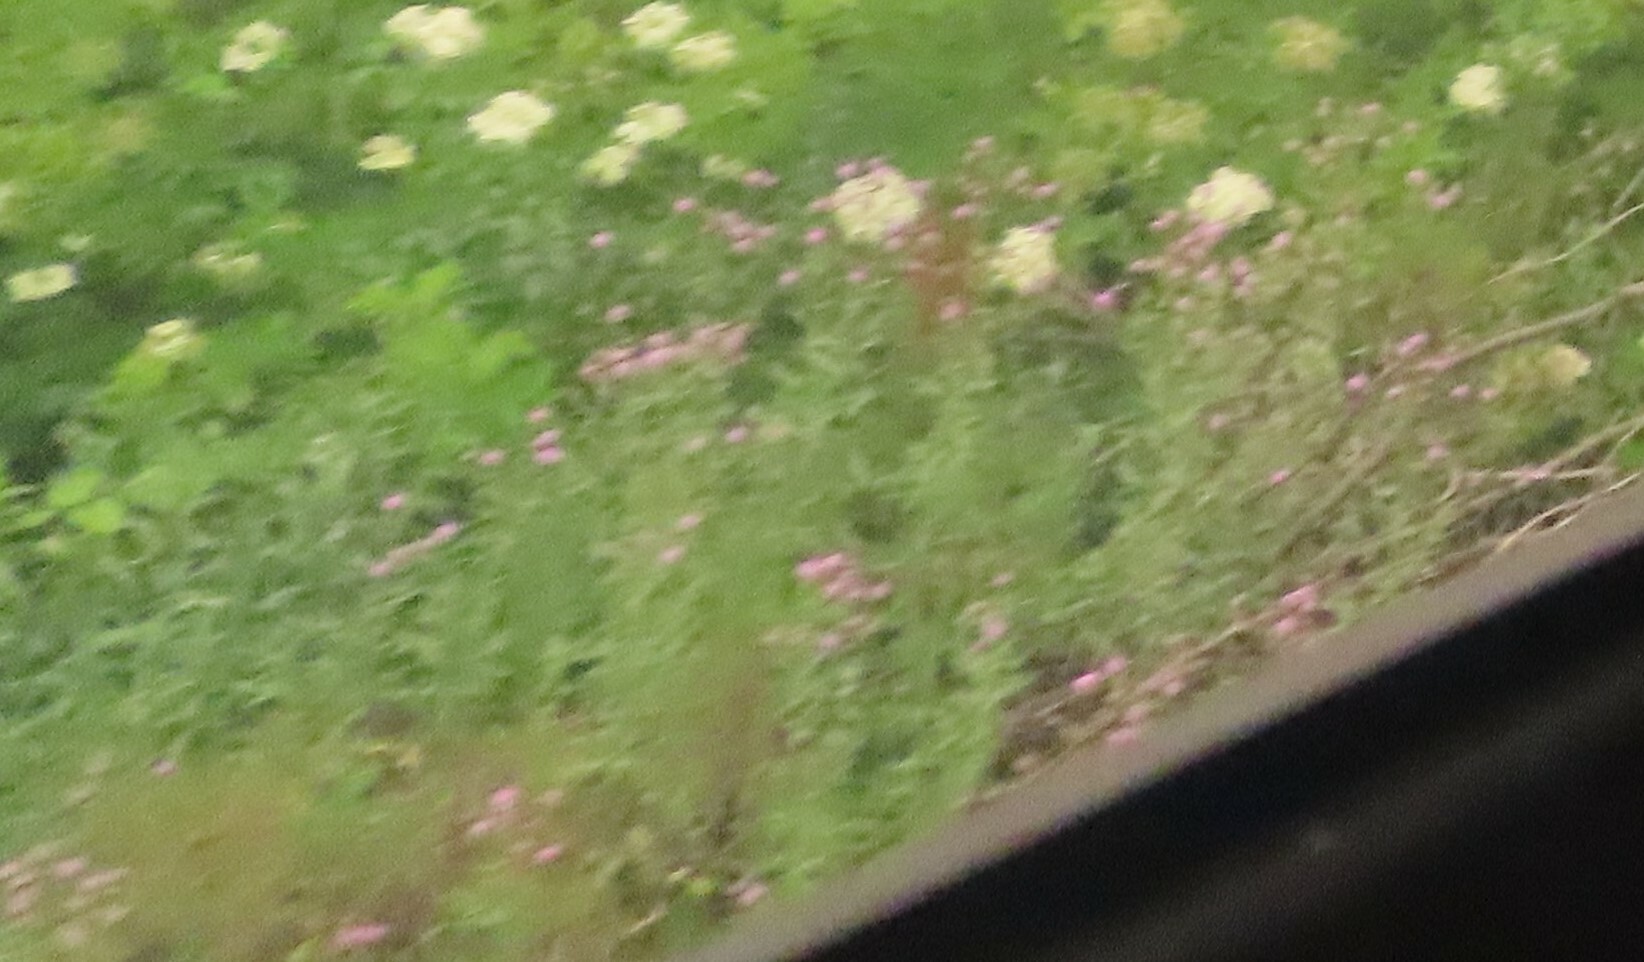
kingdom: Plantae
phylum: Tracheophyta
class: Magnoliopsida
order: Asterales
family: Asteraceae
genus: Cirsium
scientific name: Cirsium arvense
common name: Creeping thistle
